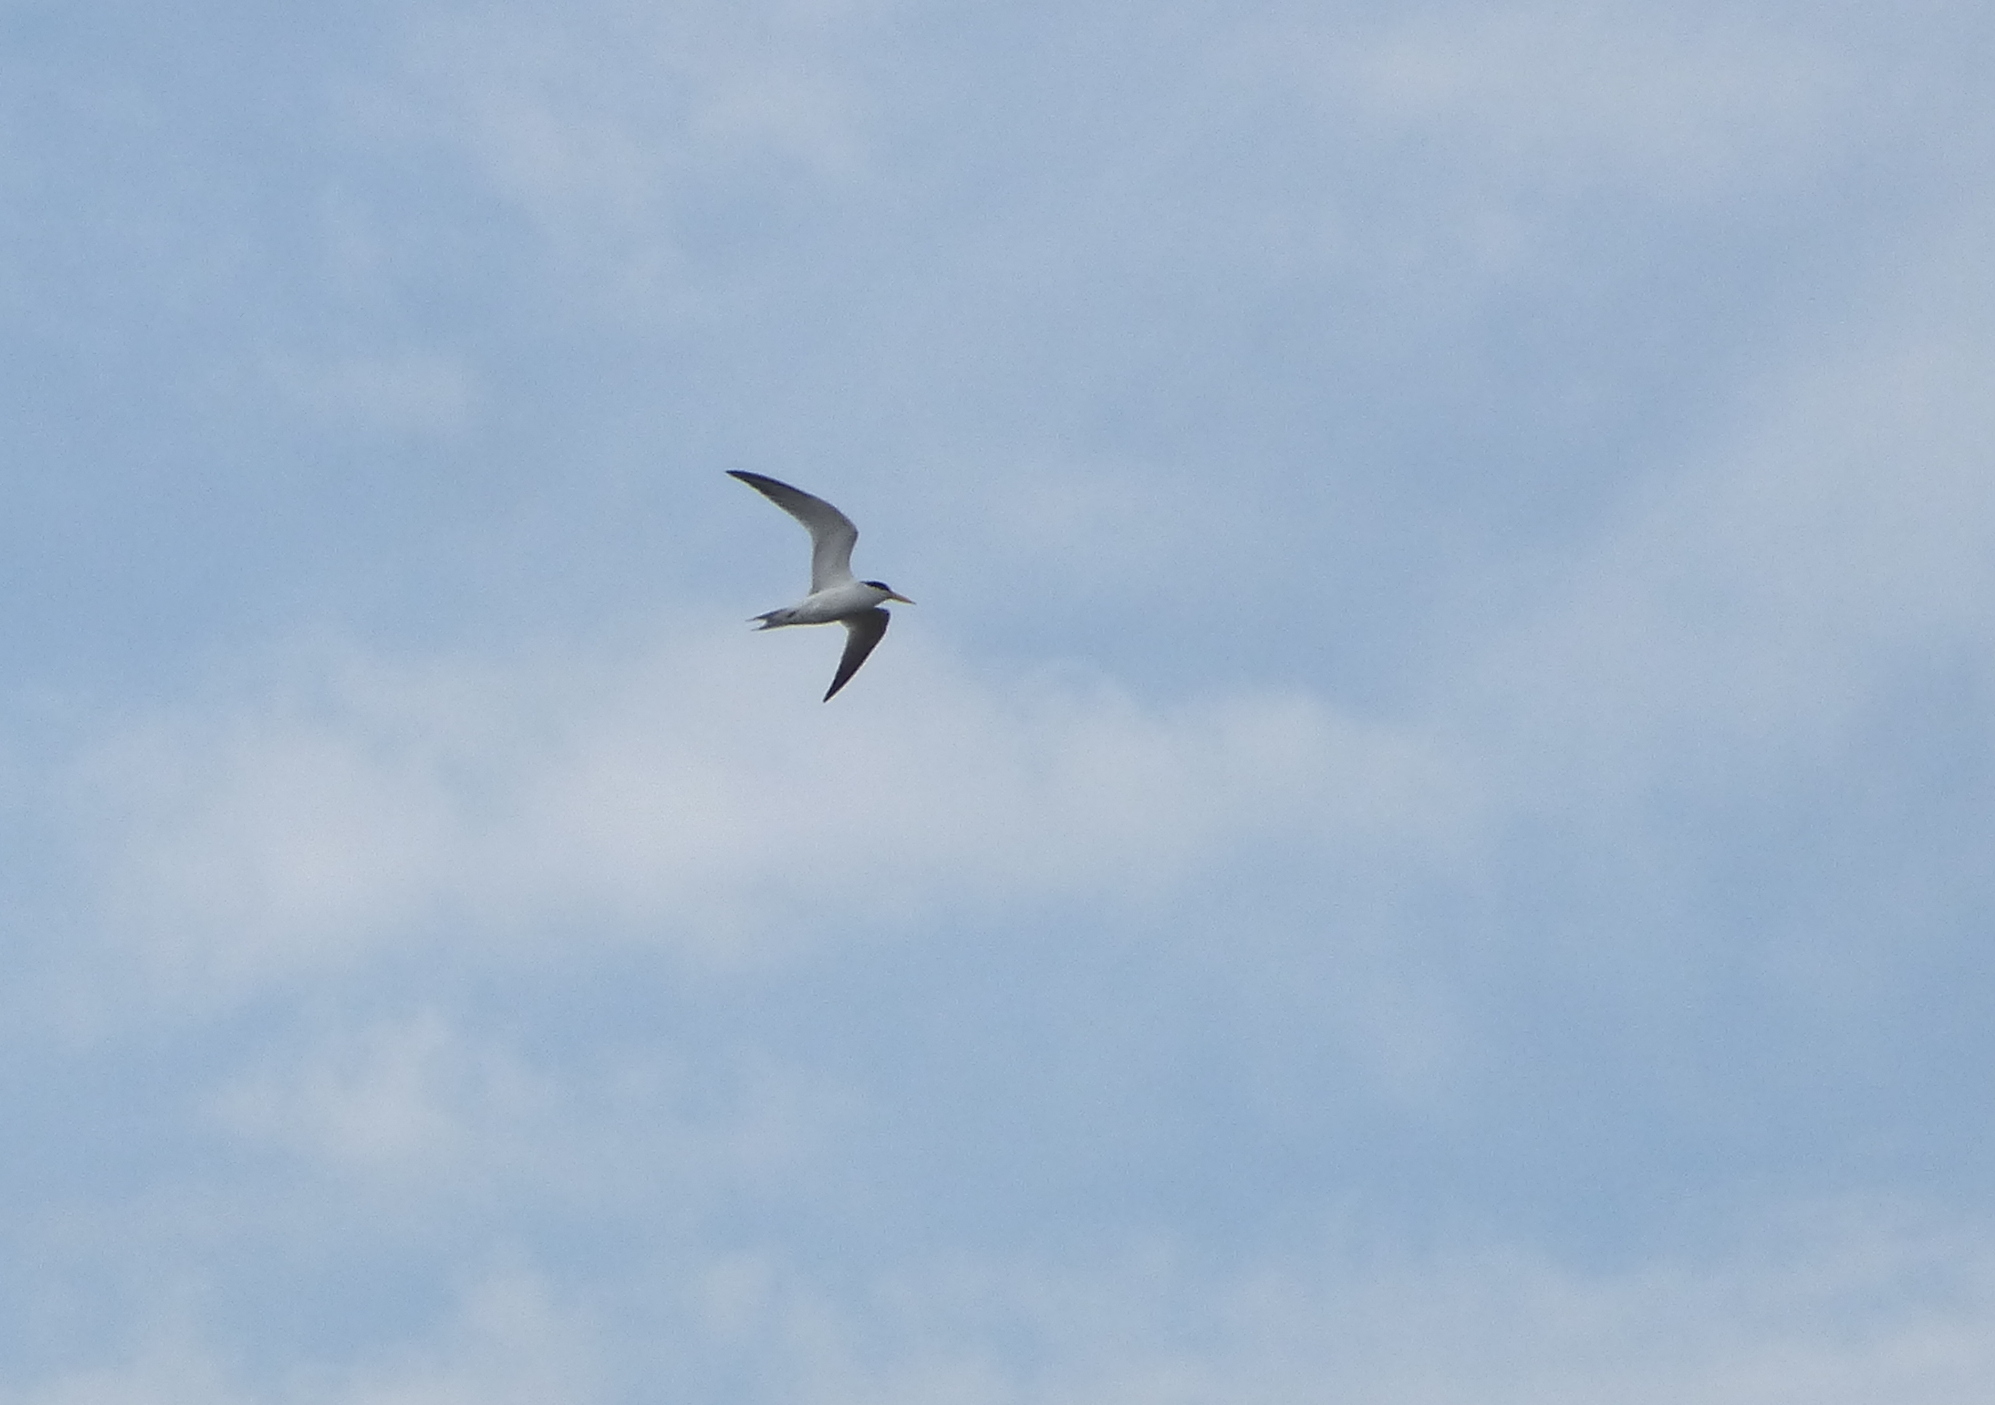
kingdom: Animalia
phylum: Chordata
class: Aves
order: Charadriiformes
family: Laridae
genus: Sternula
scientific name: Sternula superciliaris
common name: Yellow-billed tern
